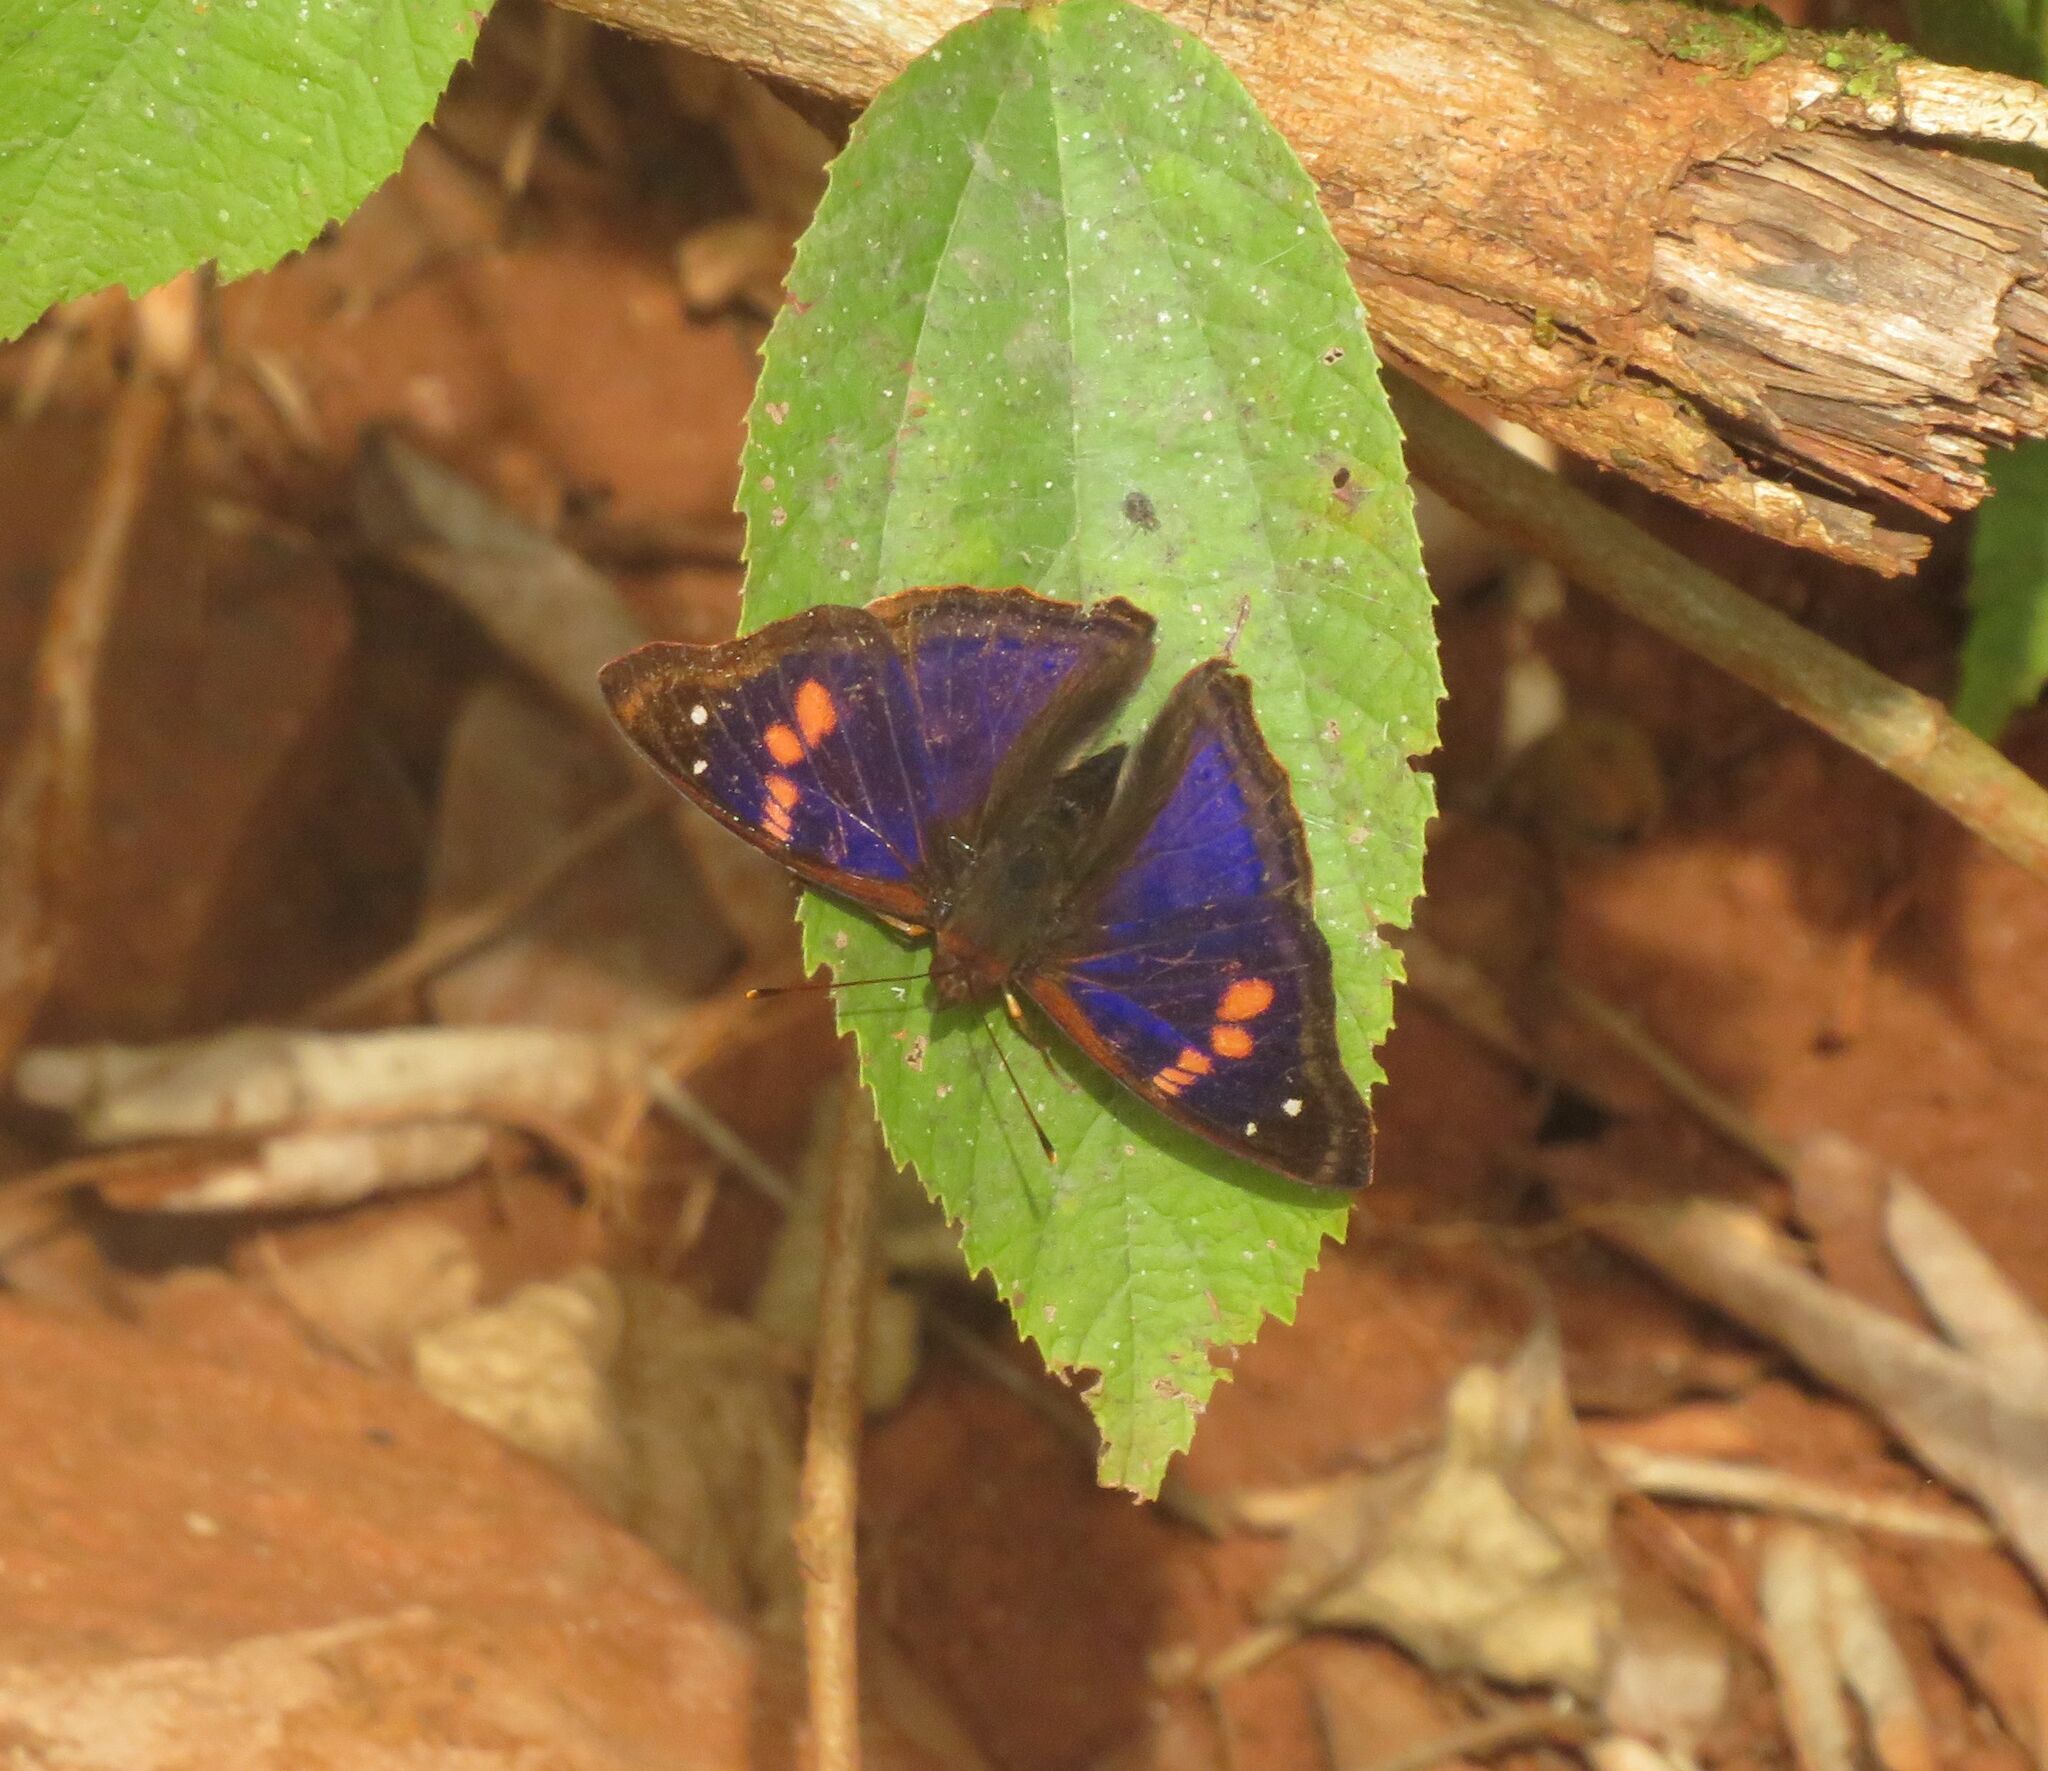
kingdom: Animalia
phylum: Arthropoda
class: Insecta
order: Lepidoptera
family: Nymphalidae
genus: Doxocopa
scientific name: Doxocopa agathina
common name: Agathina emperor
